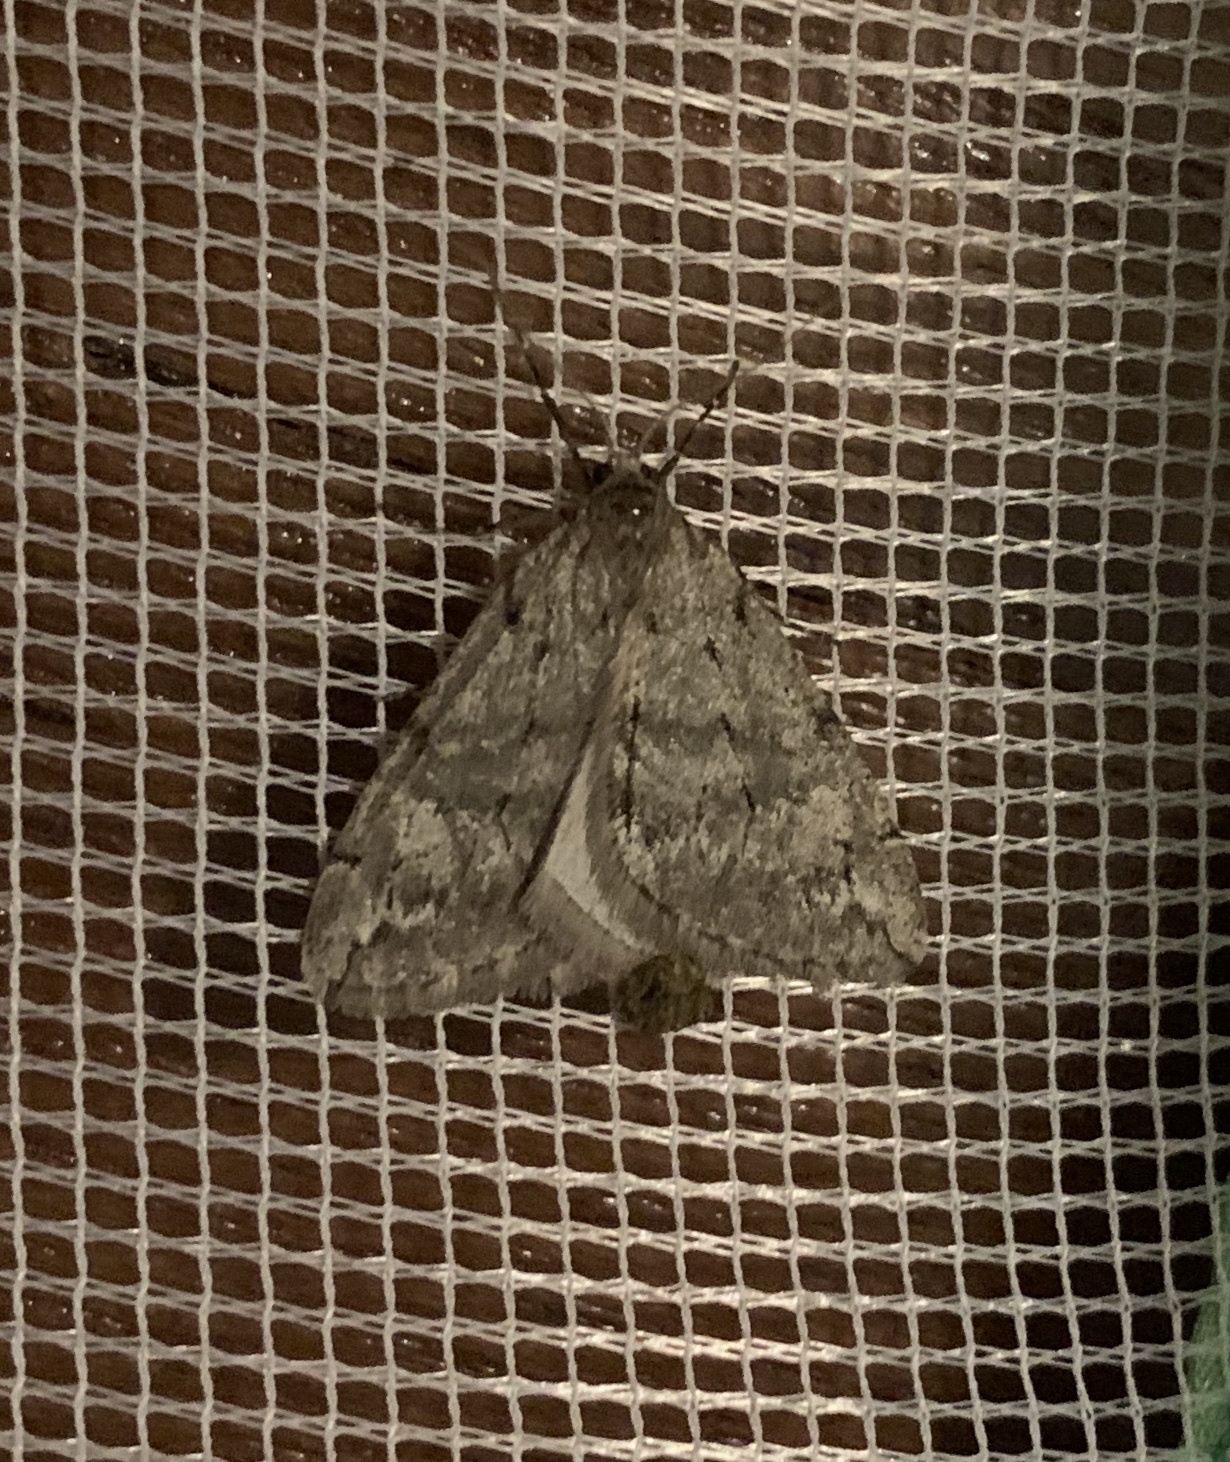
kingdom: Animalia
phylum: Arthropoda
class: Insecta
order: Lepidoptera
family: Geometridae
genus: Paleacrita
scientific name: Paleacrita vernata
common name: Spring cankerworm
